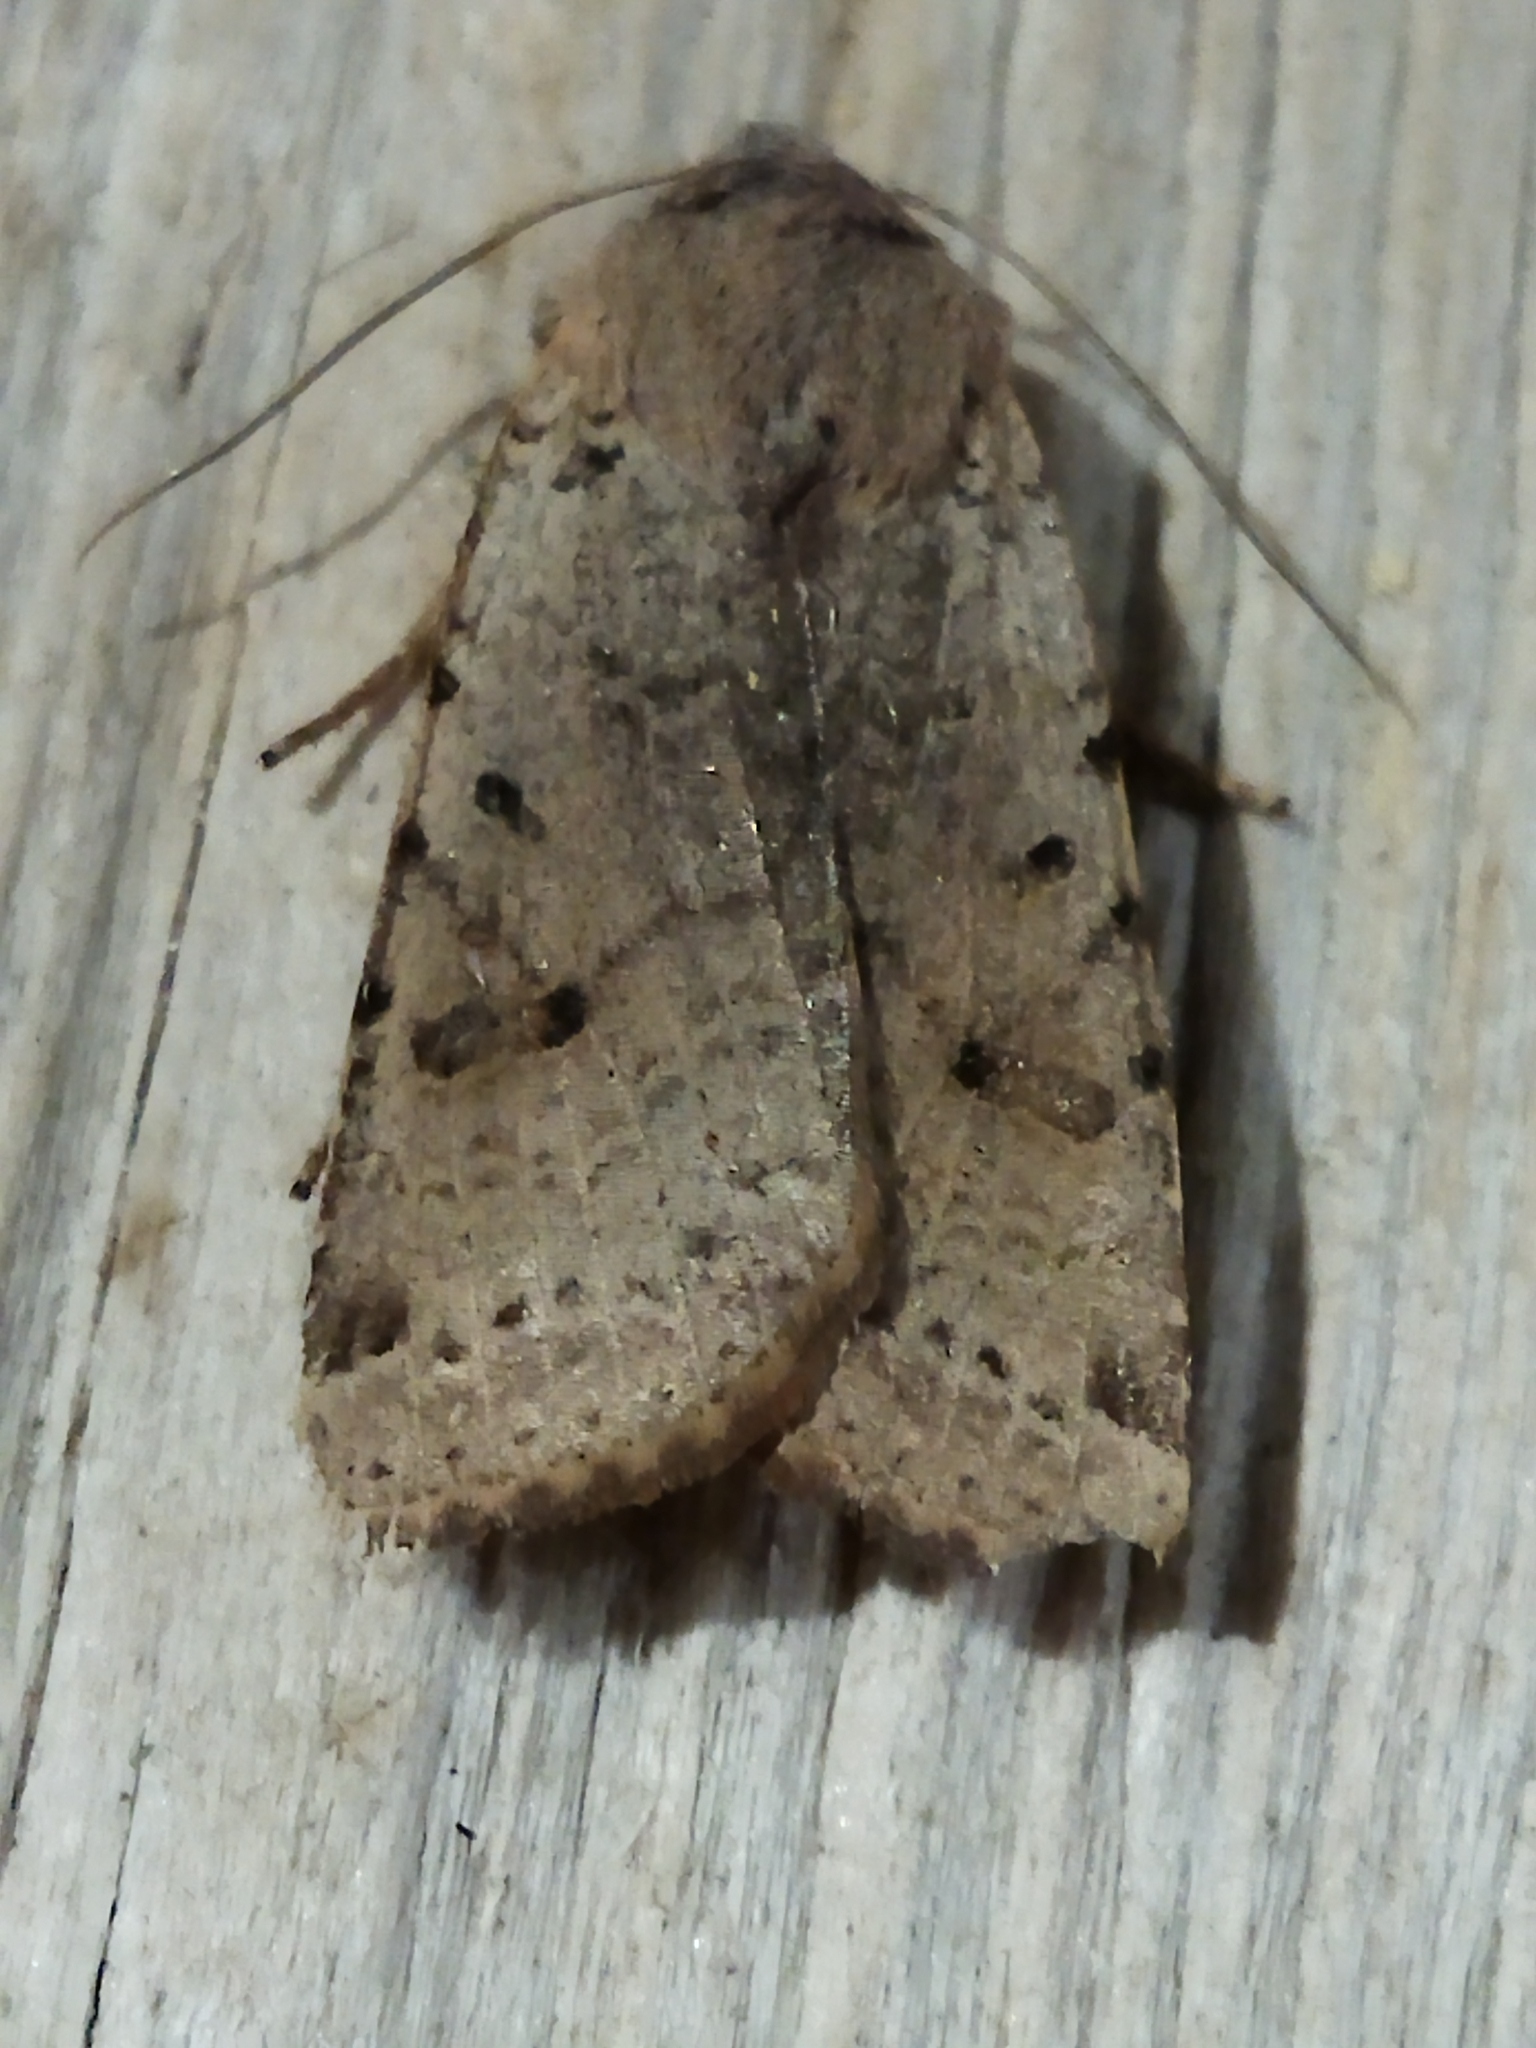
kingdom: Animalia
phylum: Arthropoda
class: Insecta
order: Lepidoptera
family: Noctuidae
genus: Agrochola
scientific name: Agrochola lychnidis
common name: Beaded chestnut
